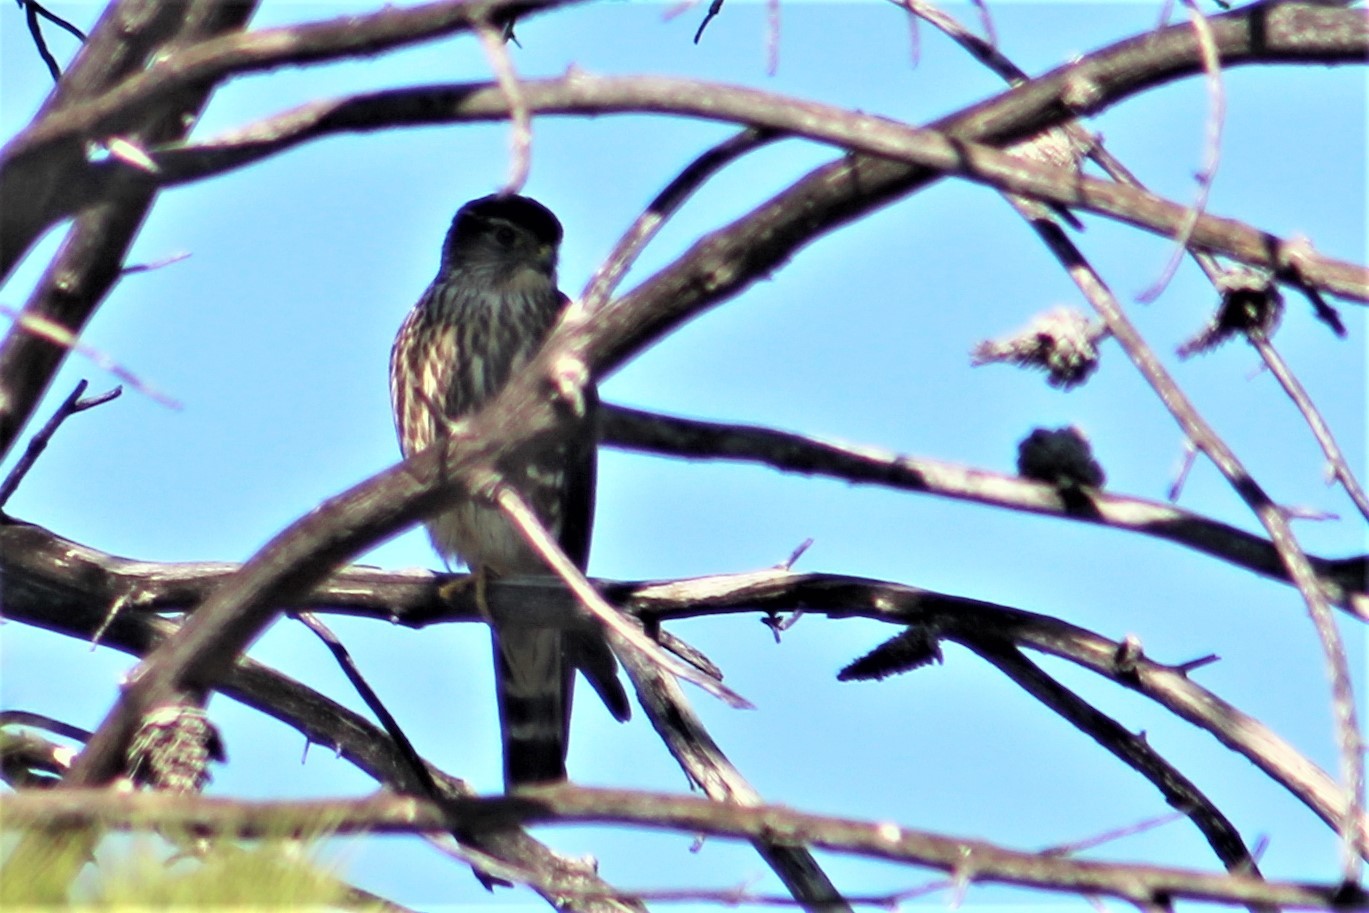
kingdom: Animalia
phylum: Chordata
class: Aves
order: Falconiformes
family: Falconidae
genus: Falco
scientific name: Falco columbarius
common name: Merlin
